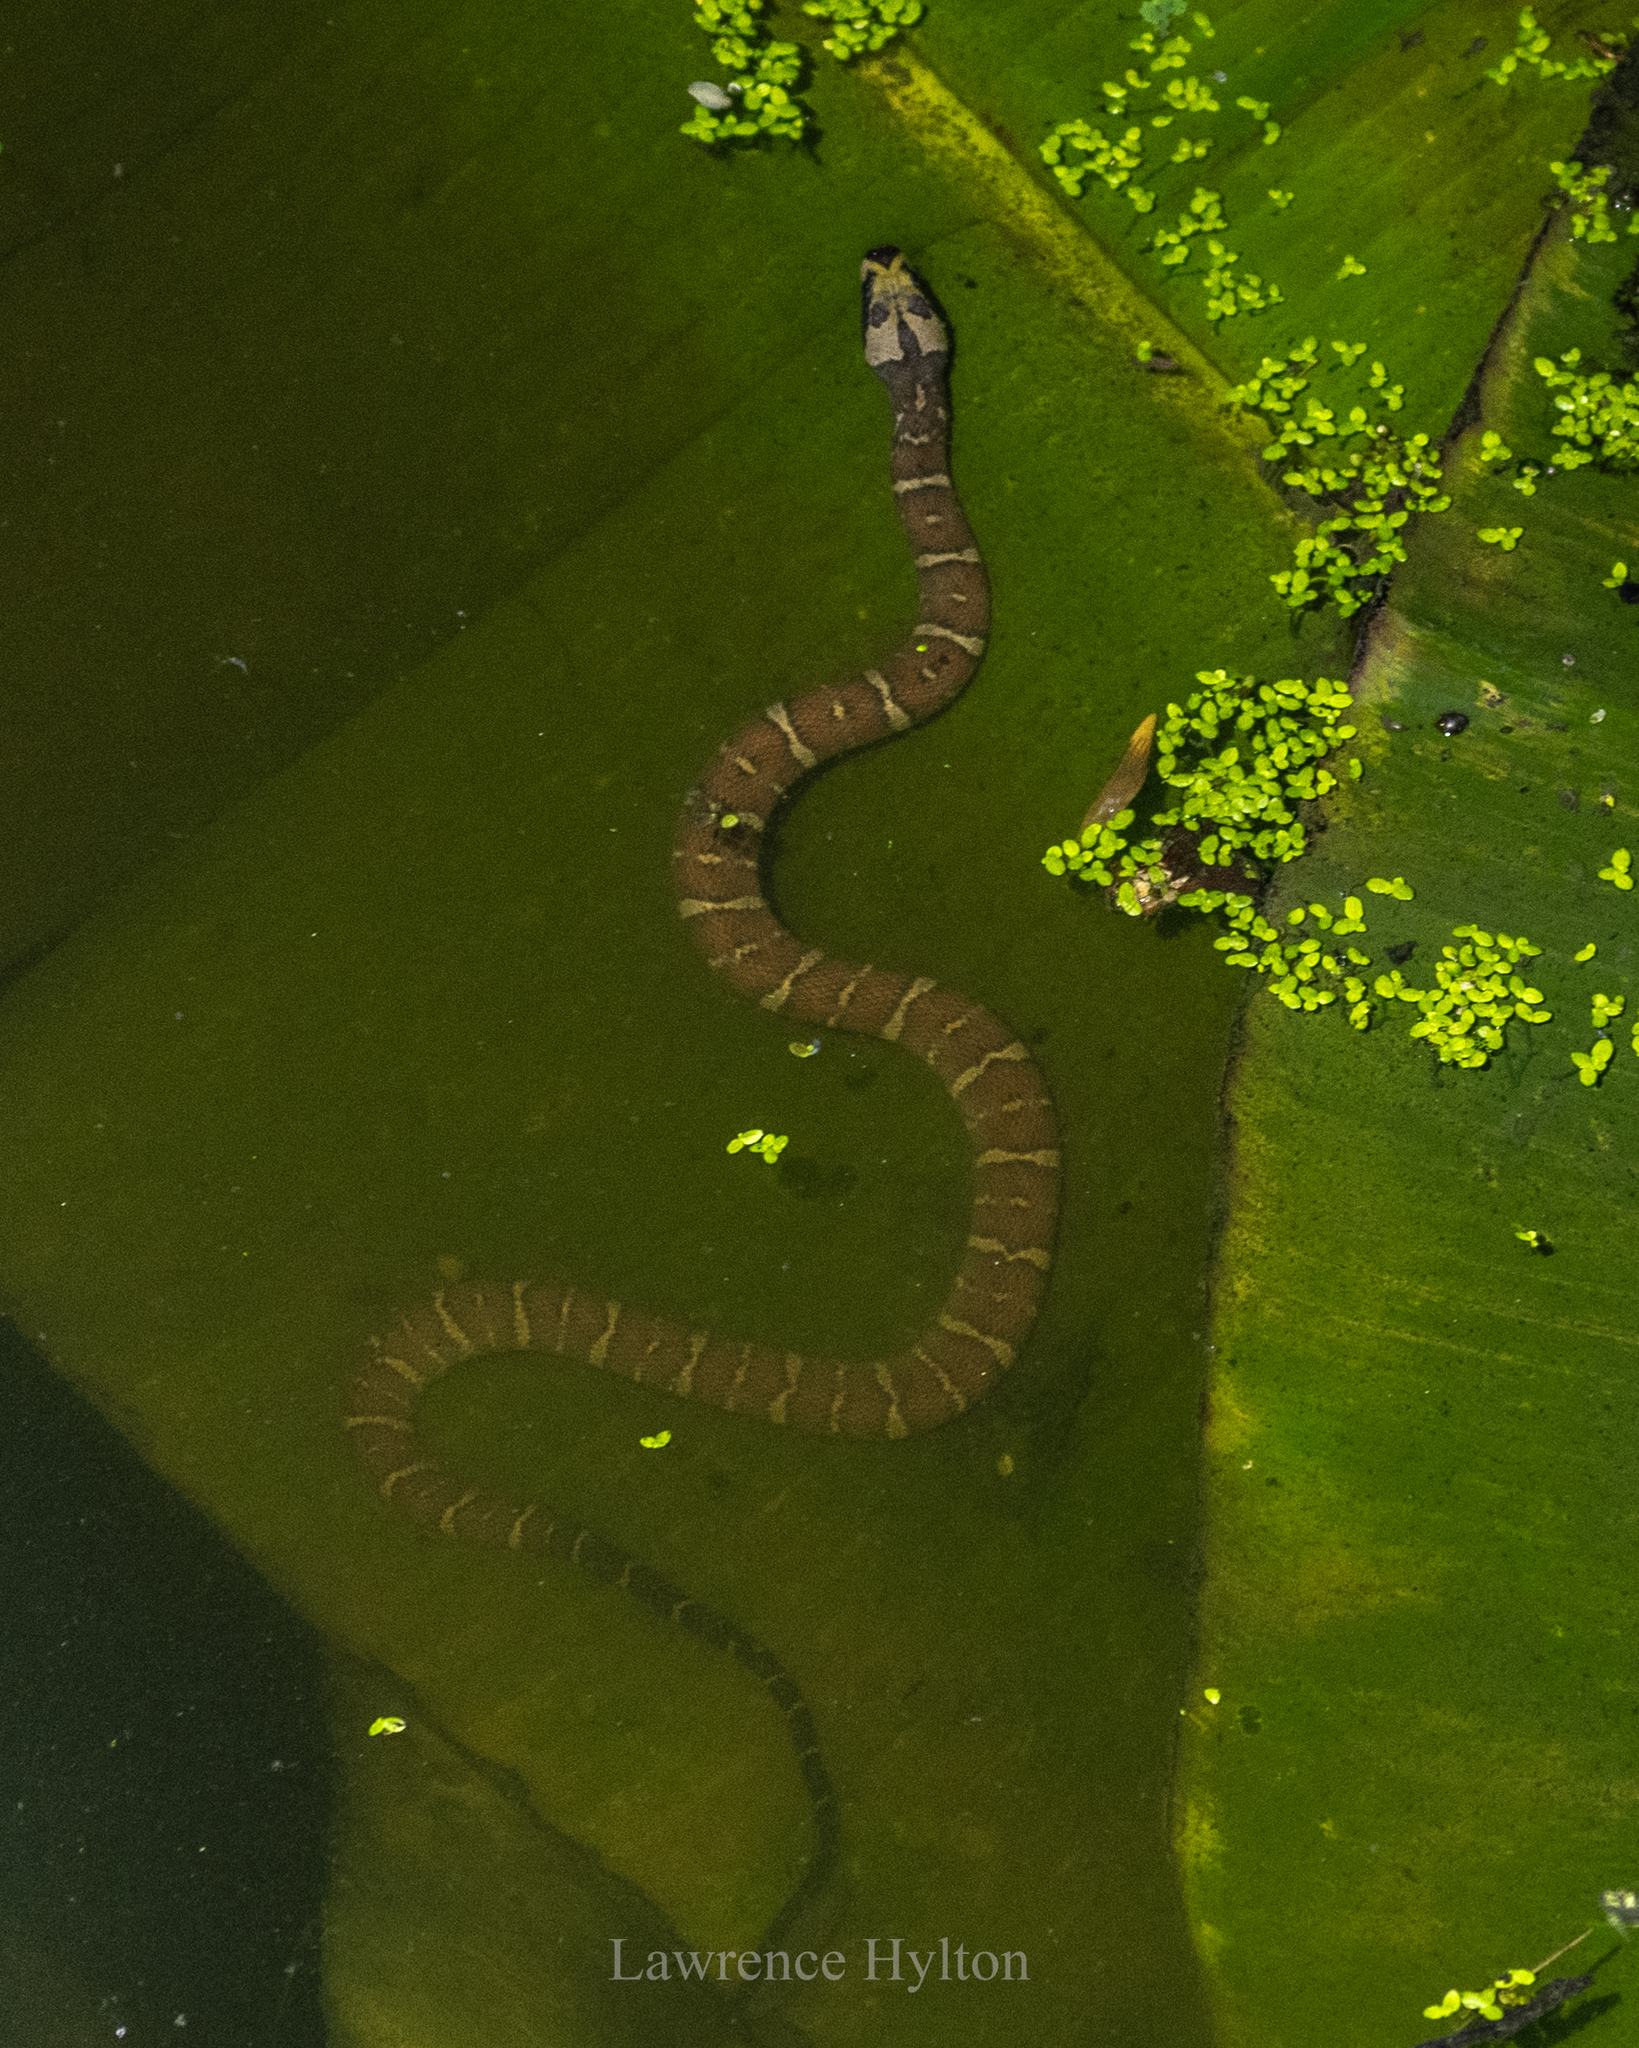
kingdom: Animalia
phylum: Chordata
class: Squamata
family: Homalopsidae
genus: Homalopsis
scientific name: Homalopsis mereljcoxi
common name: Jack’s water snake
